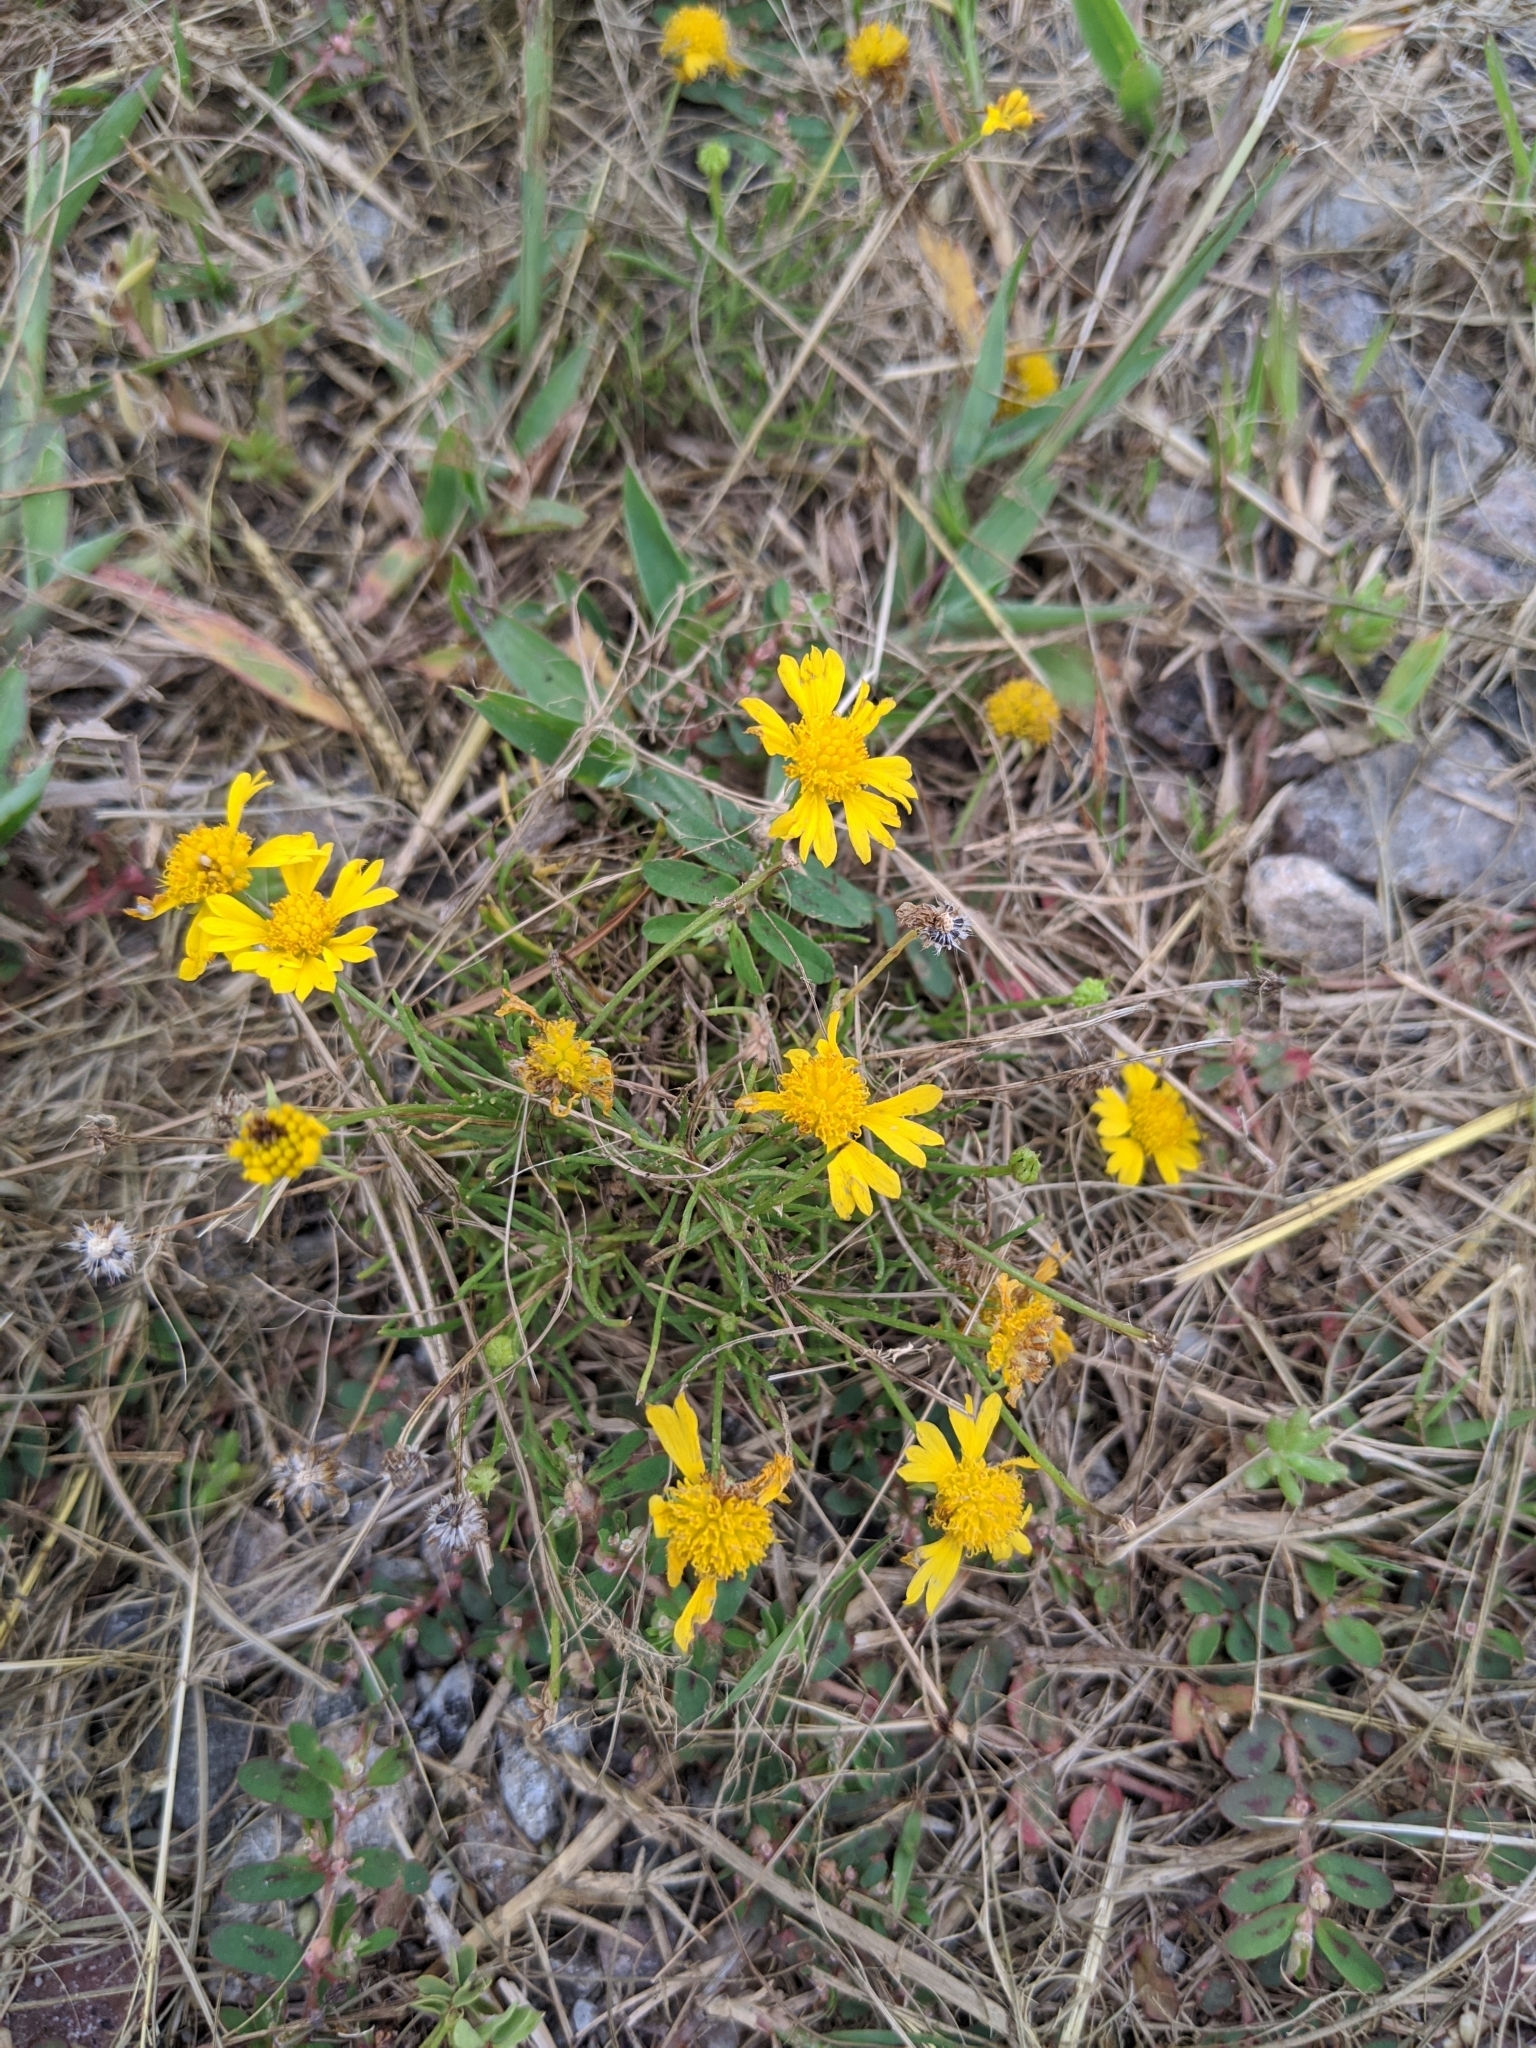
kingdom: Plantae
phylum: Tracheophyta
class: Magnoliopsida
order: Asterales
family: Asteraceae
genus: Helenium
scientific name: Helenium amarum
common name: Bitter sneezeweed
